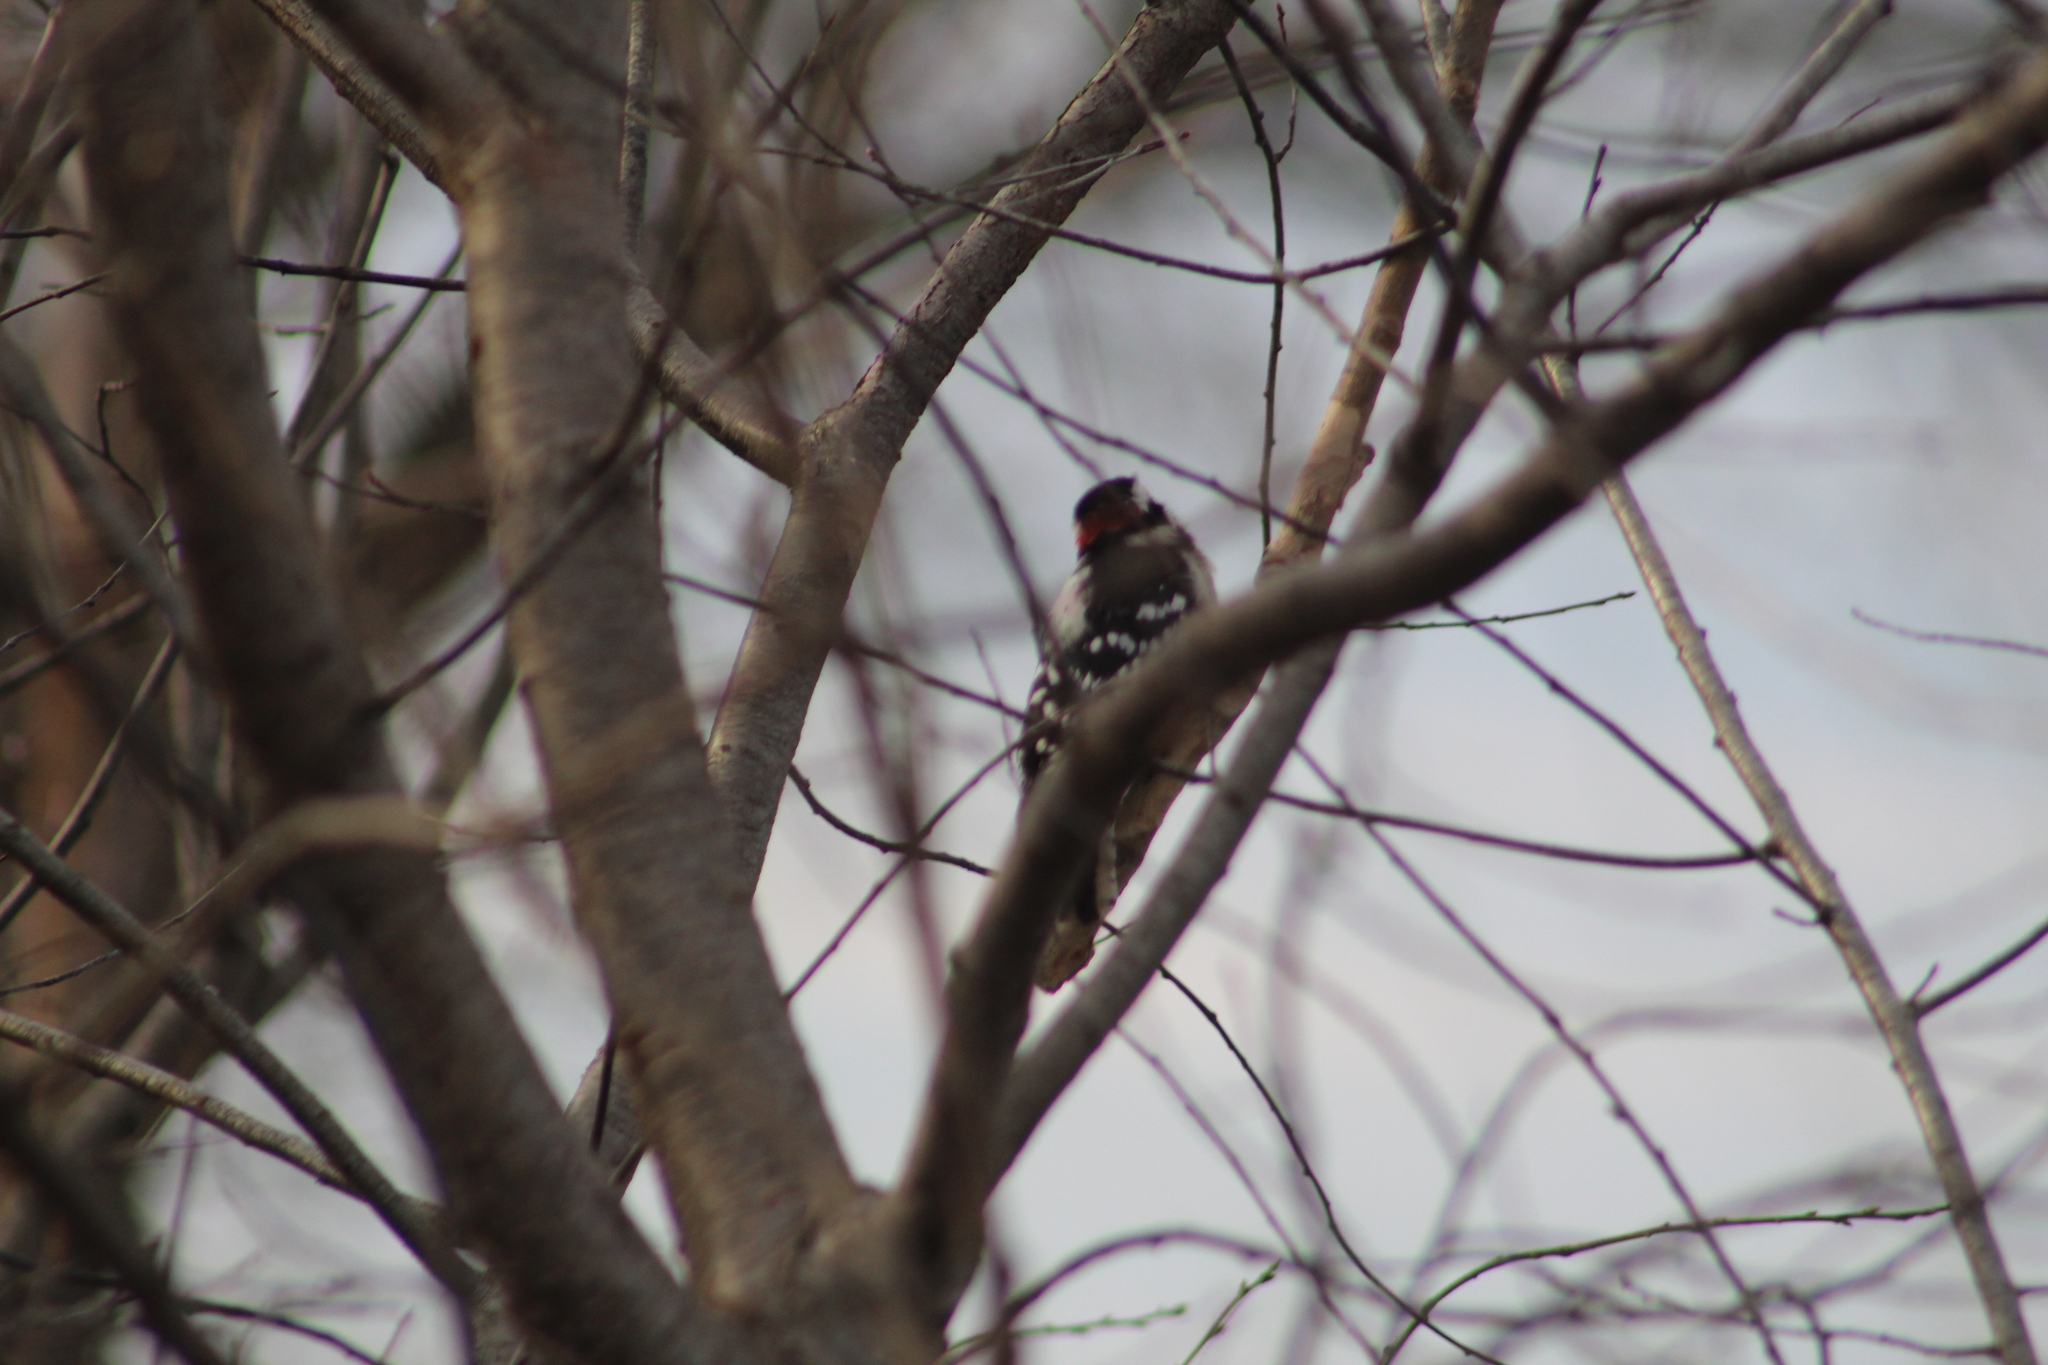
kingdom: Animalia
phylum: Chordata
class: Aves
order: Piciformes
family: Picidae
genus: Dryobates
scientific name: Dryobates pubescens
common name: Downy woodpecker
